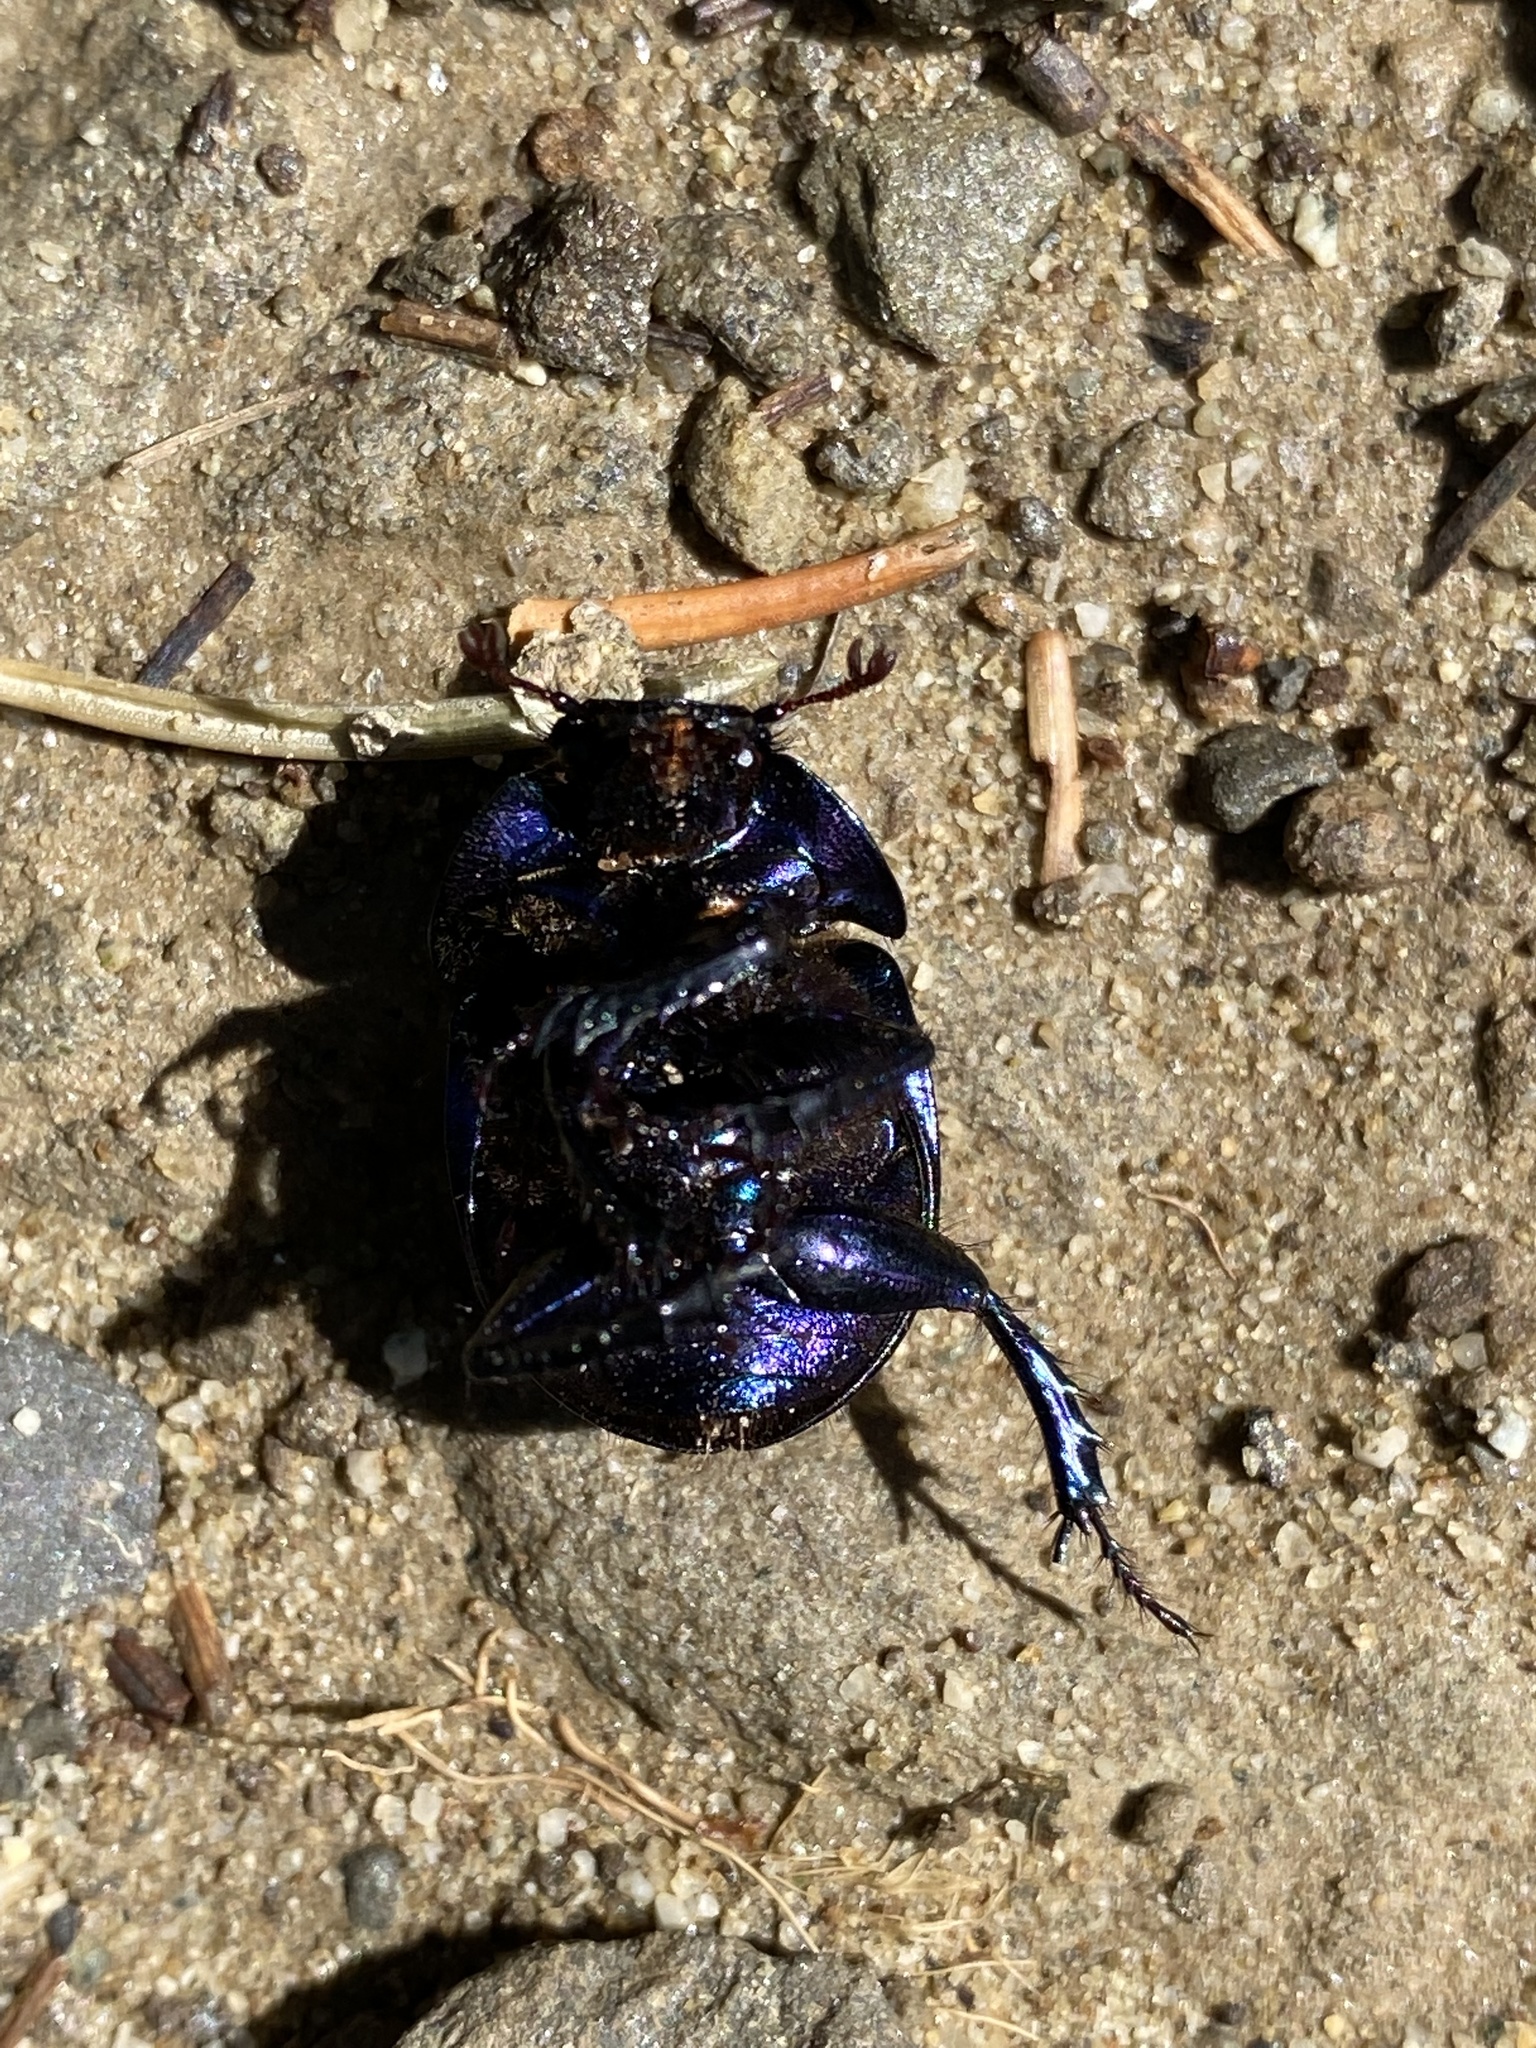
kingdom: Animalia
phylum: Arthropoda
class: Insecta
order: Coleoptera
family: Geotrupidae
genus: Anoplotrupes
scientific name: Anoplotrupes stercorosus
